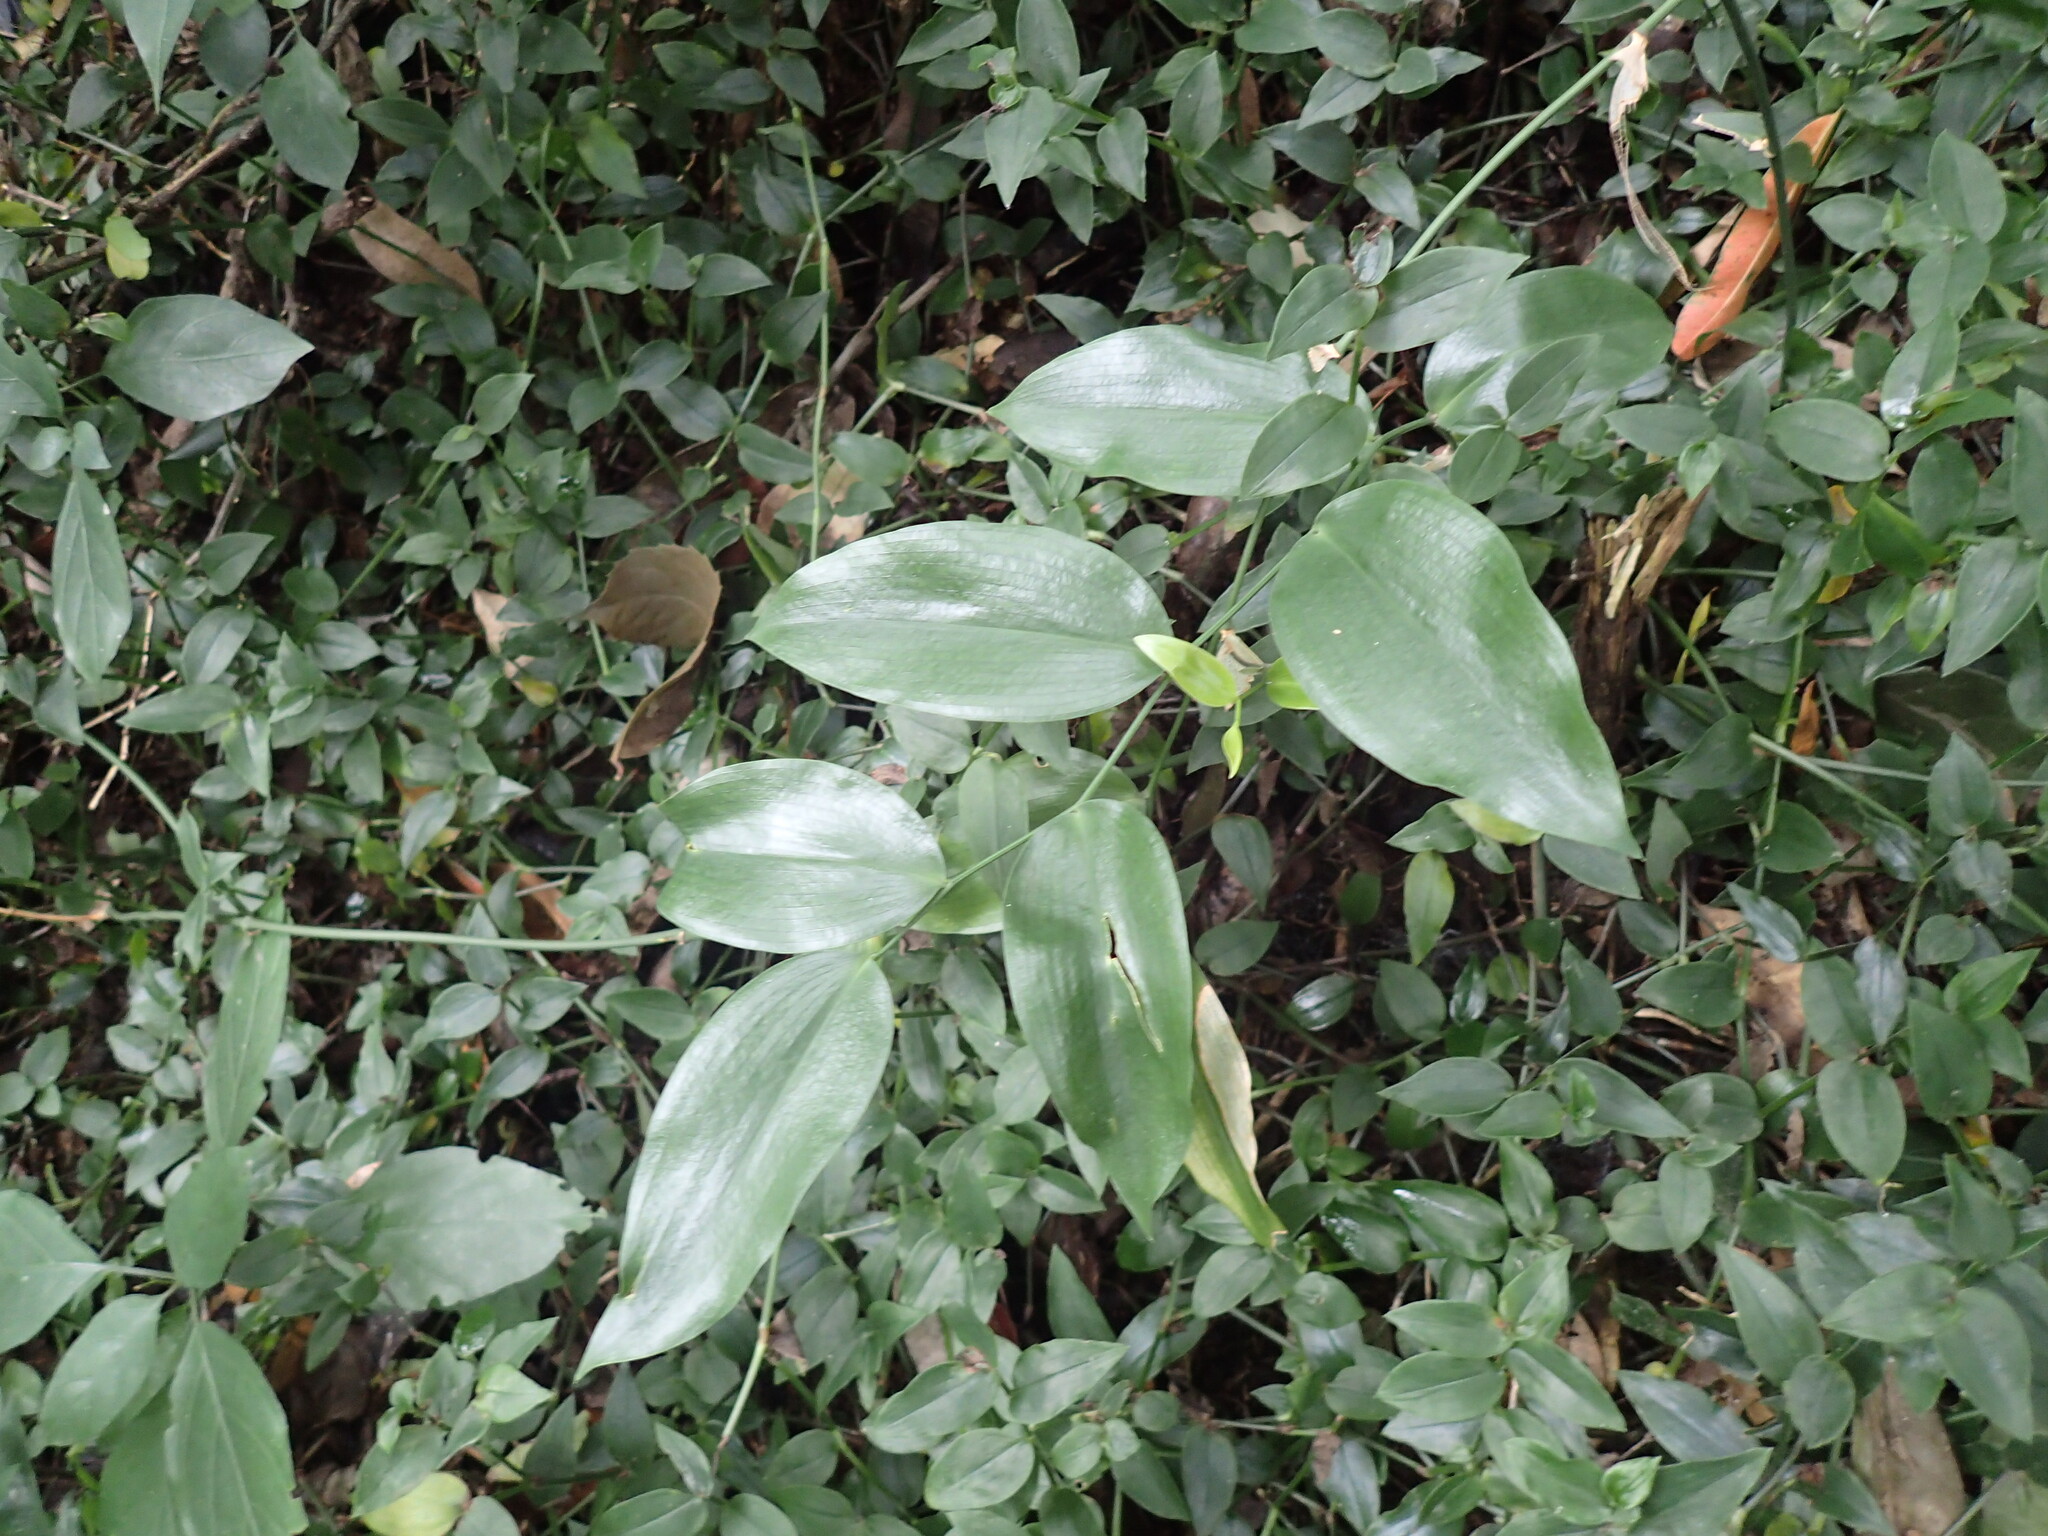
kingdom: Plantae
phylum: Tracheophyta
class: Liliopsida
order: Asparagales
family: Asparagaceae
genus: Behnia
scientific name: Behnia reticulata
